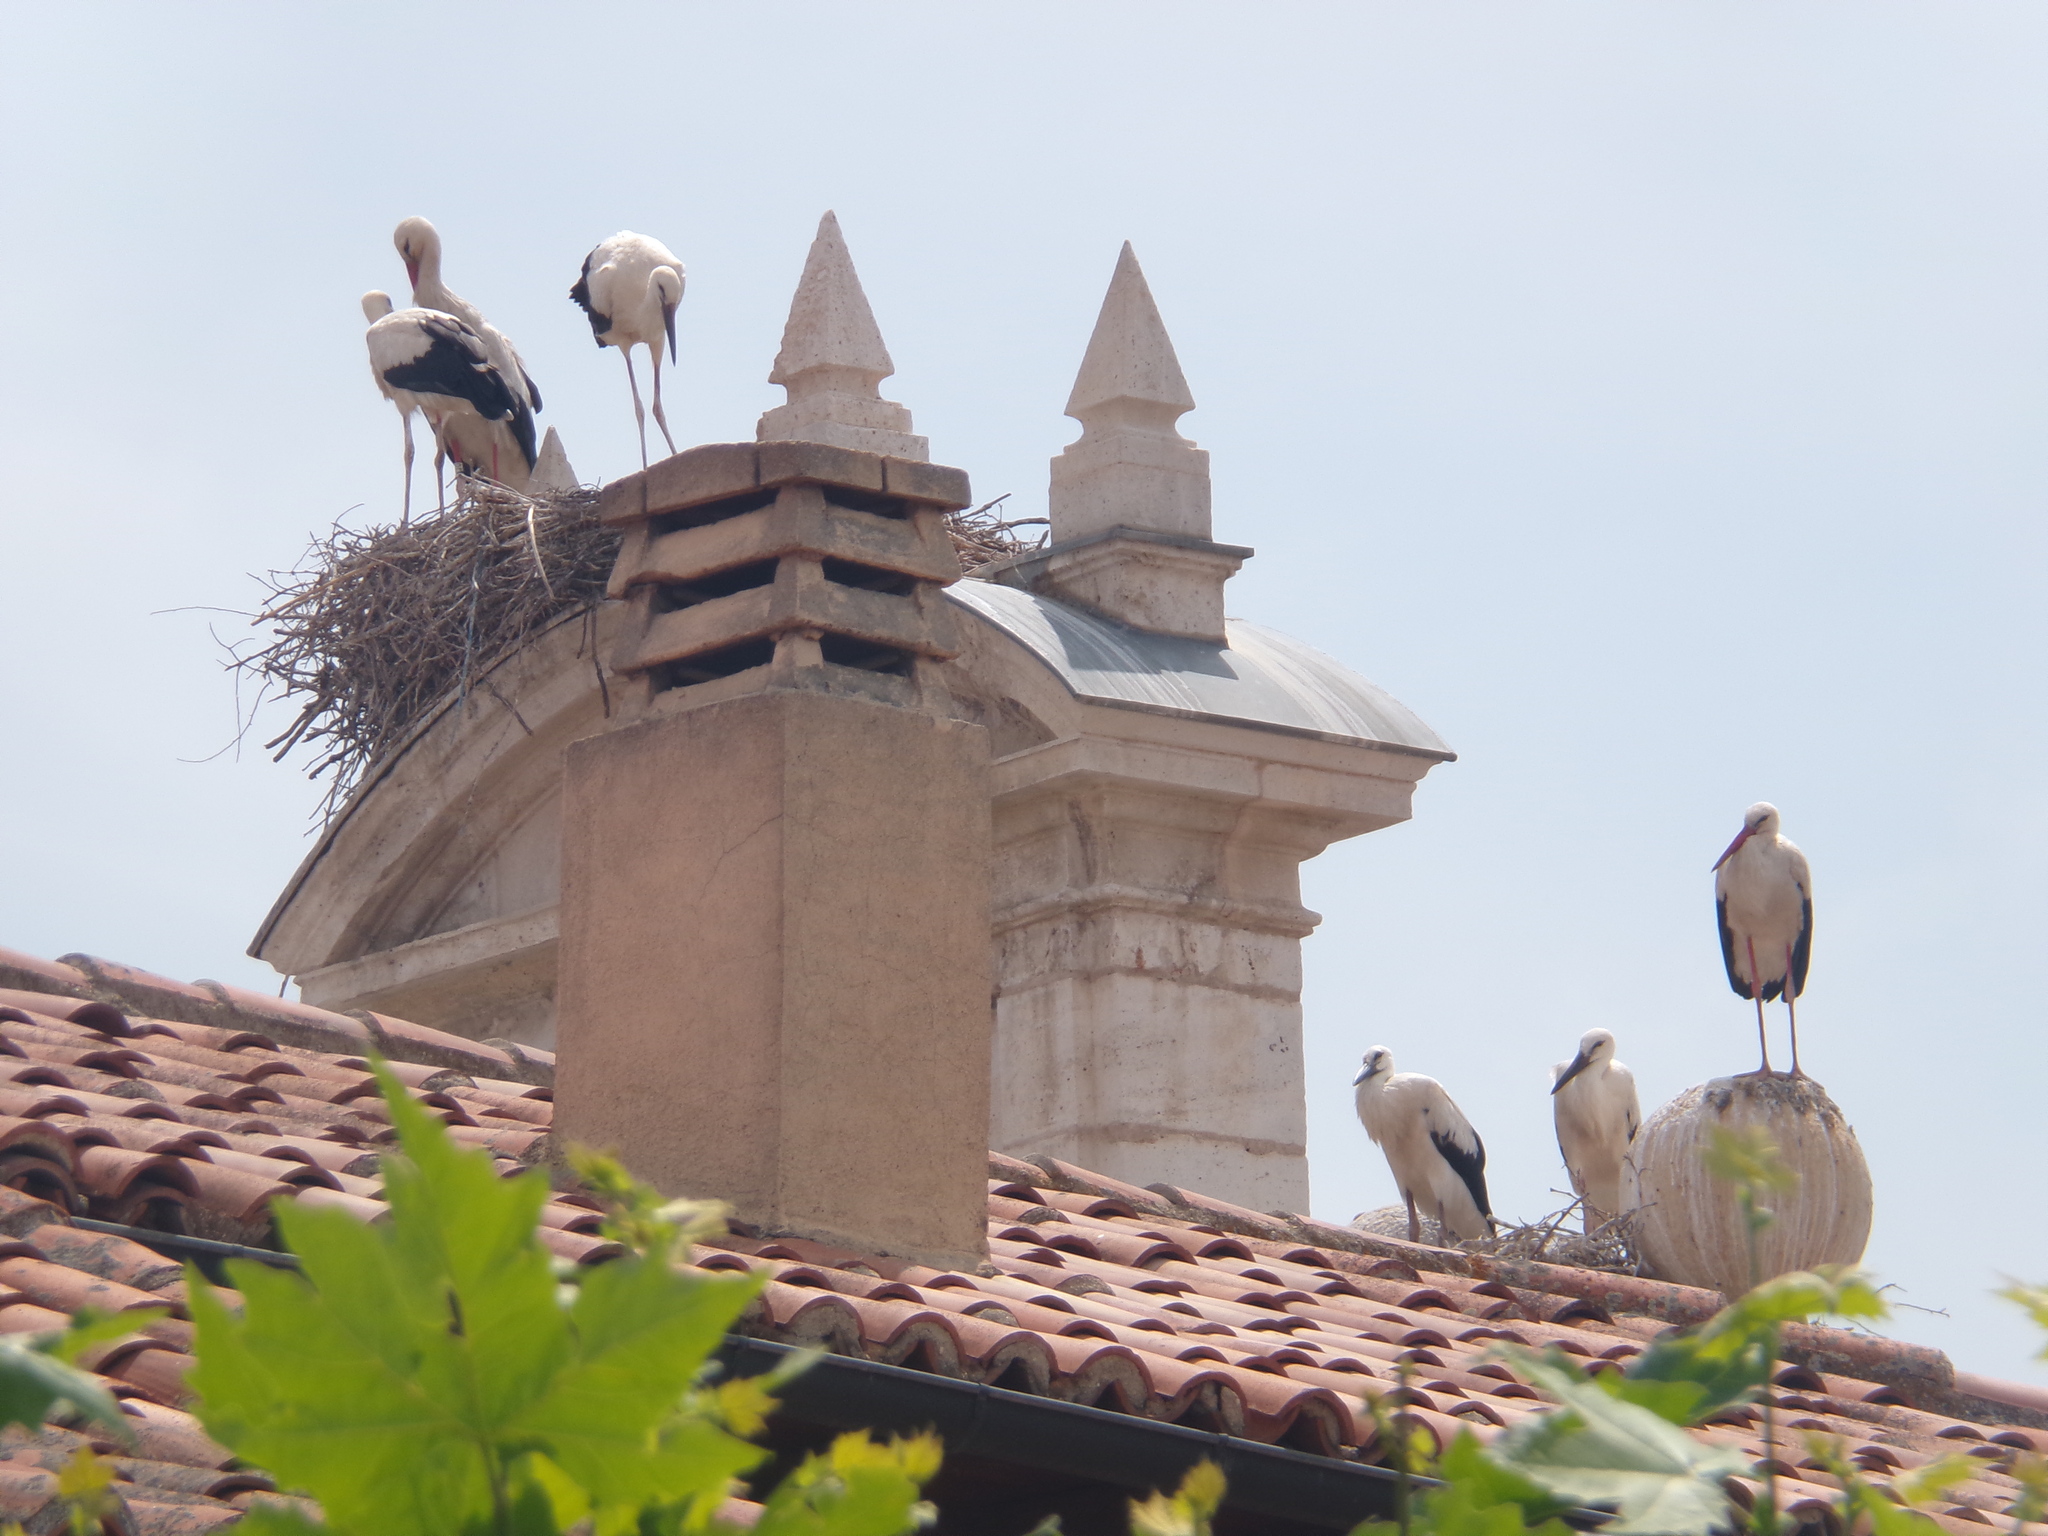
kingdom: Animalia
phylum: Chordata
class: Aves
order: Ciconiiformes
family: Ciconiidae
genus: Ciconia
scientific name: Ciconia ciconia
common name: White stork
